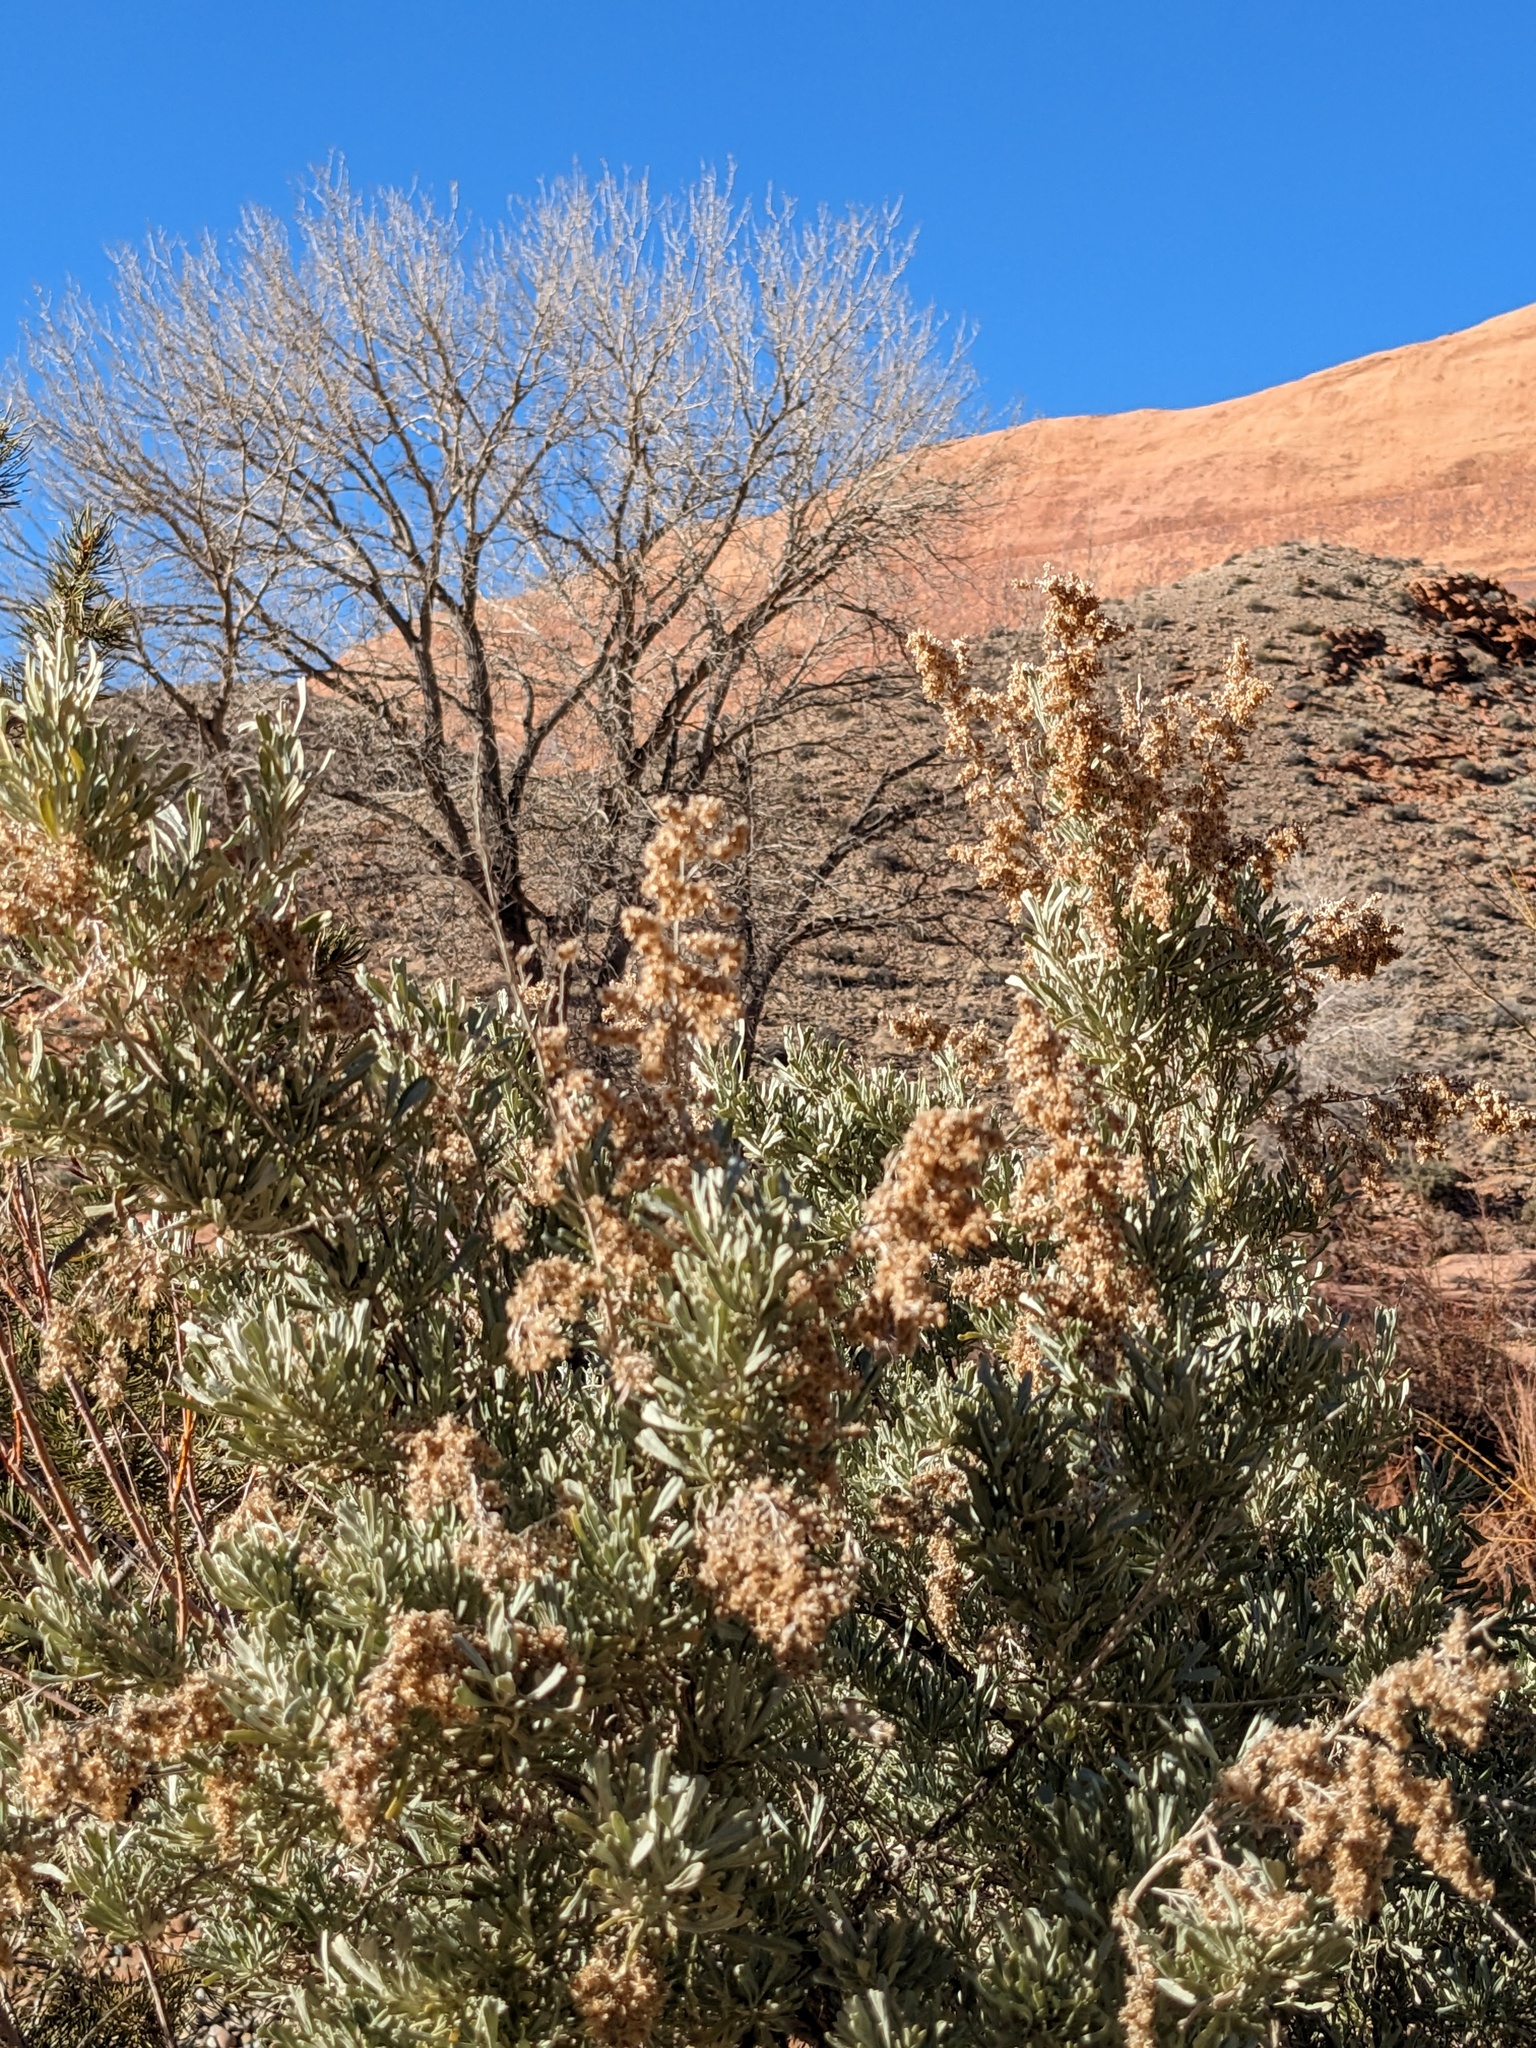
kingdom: Plantae
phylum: Tracheophyta
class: Magnoliopsida
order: Asterales
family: Asteraceae
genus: Artemisia
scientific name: Artemisia tridentata
